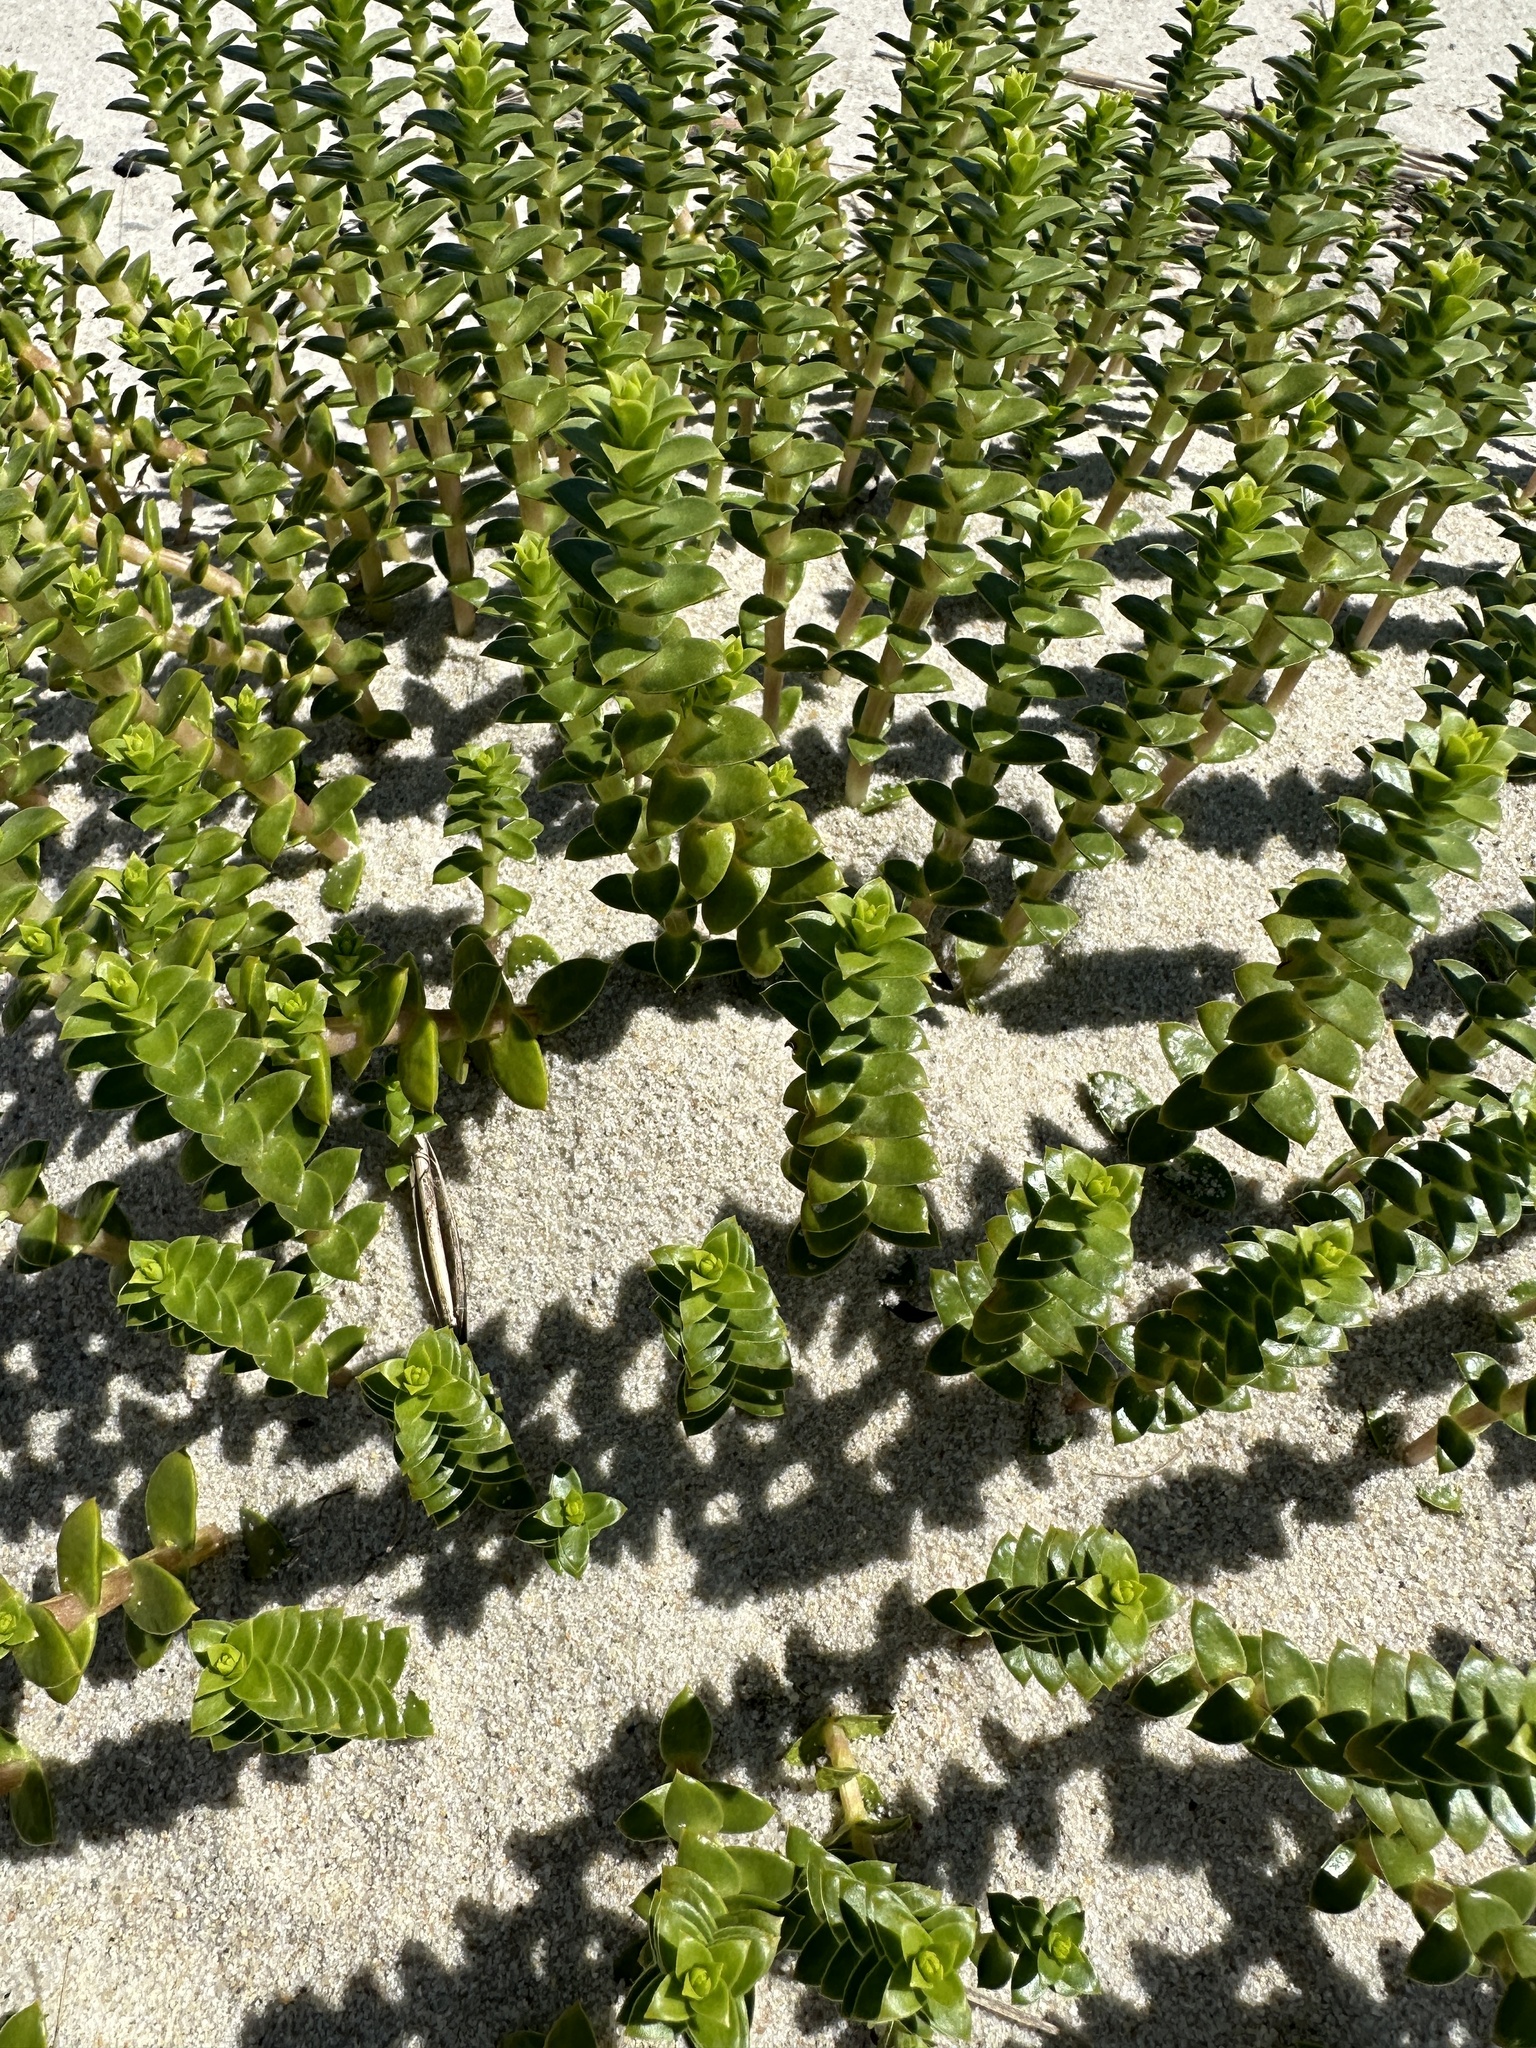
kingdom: Plantae
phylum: Tracheophyta
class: Magnoliopsida
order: Caryophyllales
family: Caryophyllaceae
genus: Honckenya
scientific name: Honckenya peploides
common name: Sea sandwort
